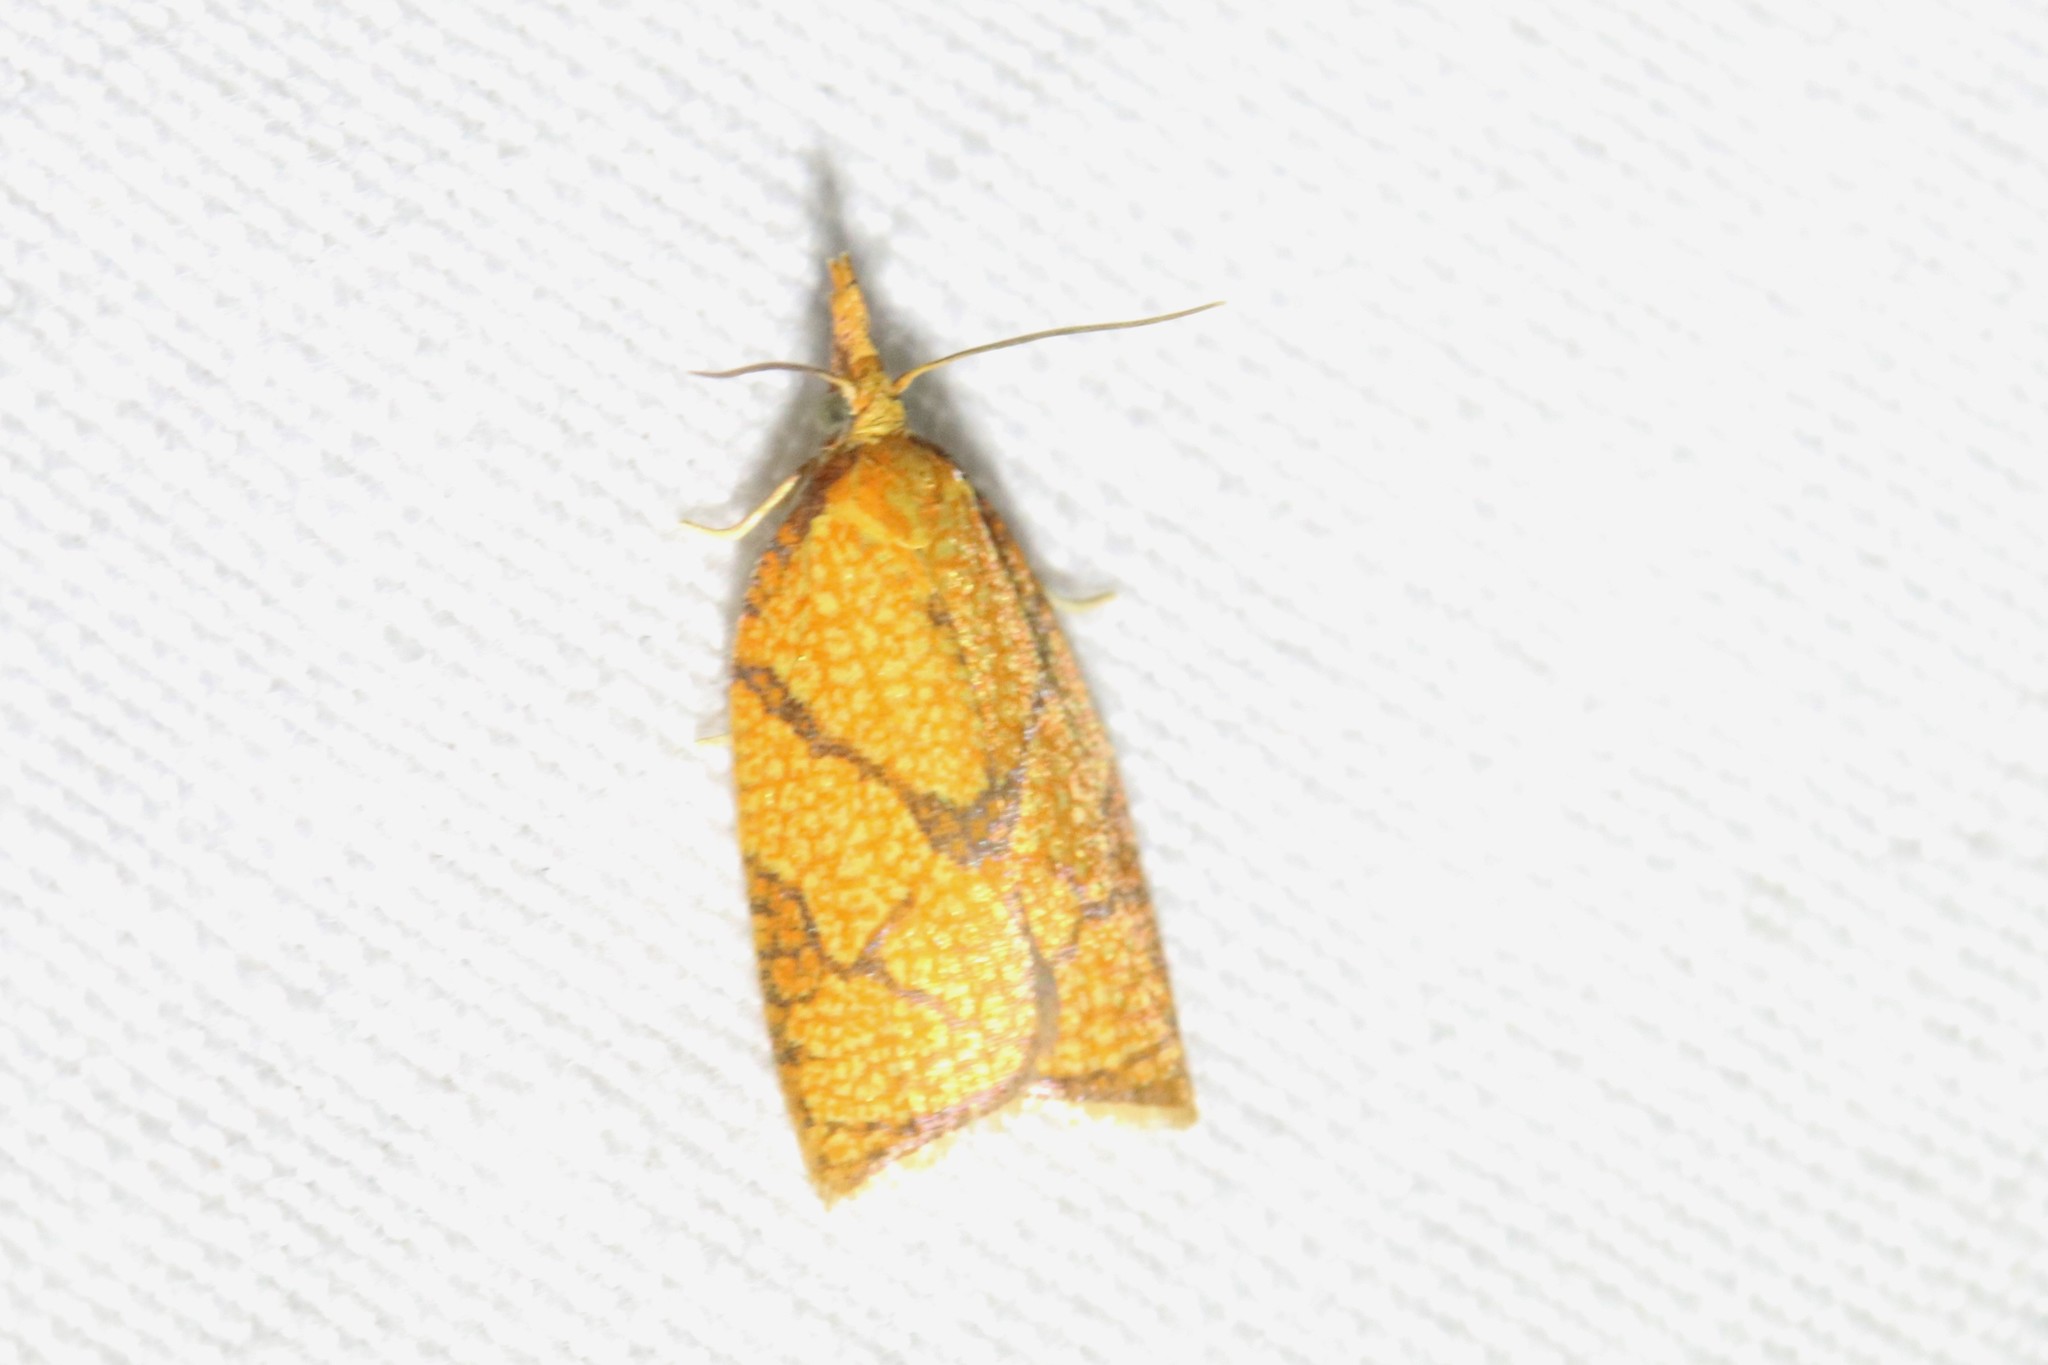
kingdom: Animalia
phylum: Arthropoda
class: Insecta
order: Lepidoptera
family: Tortricidae
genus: Cenopis
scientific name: Cenopis reticulatana
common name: Reticulated fruitworm moth
